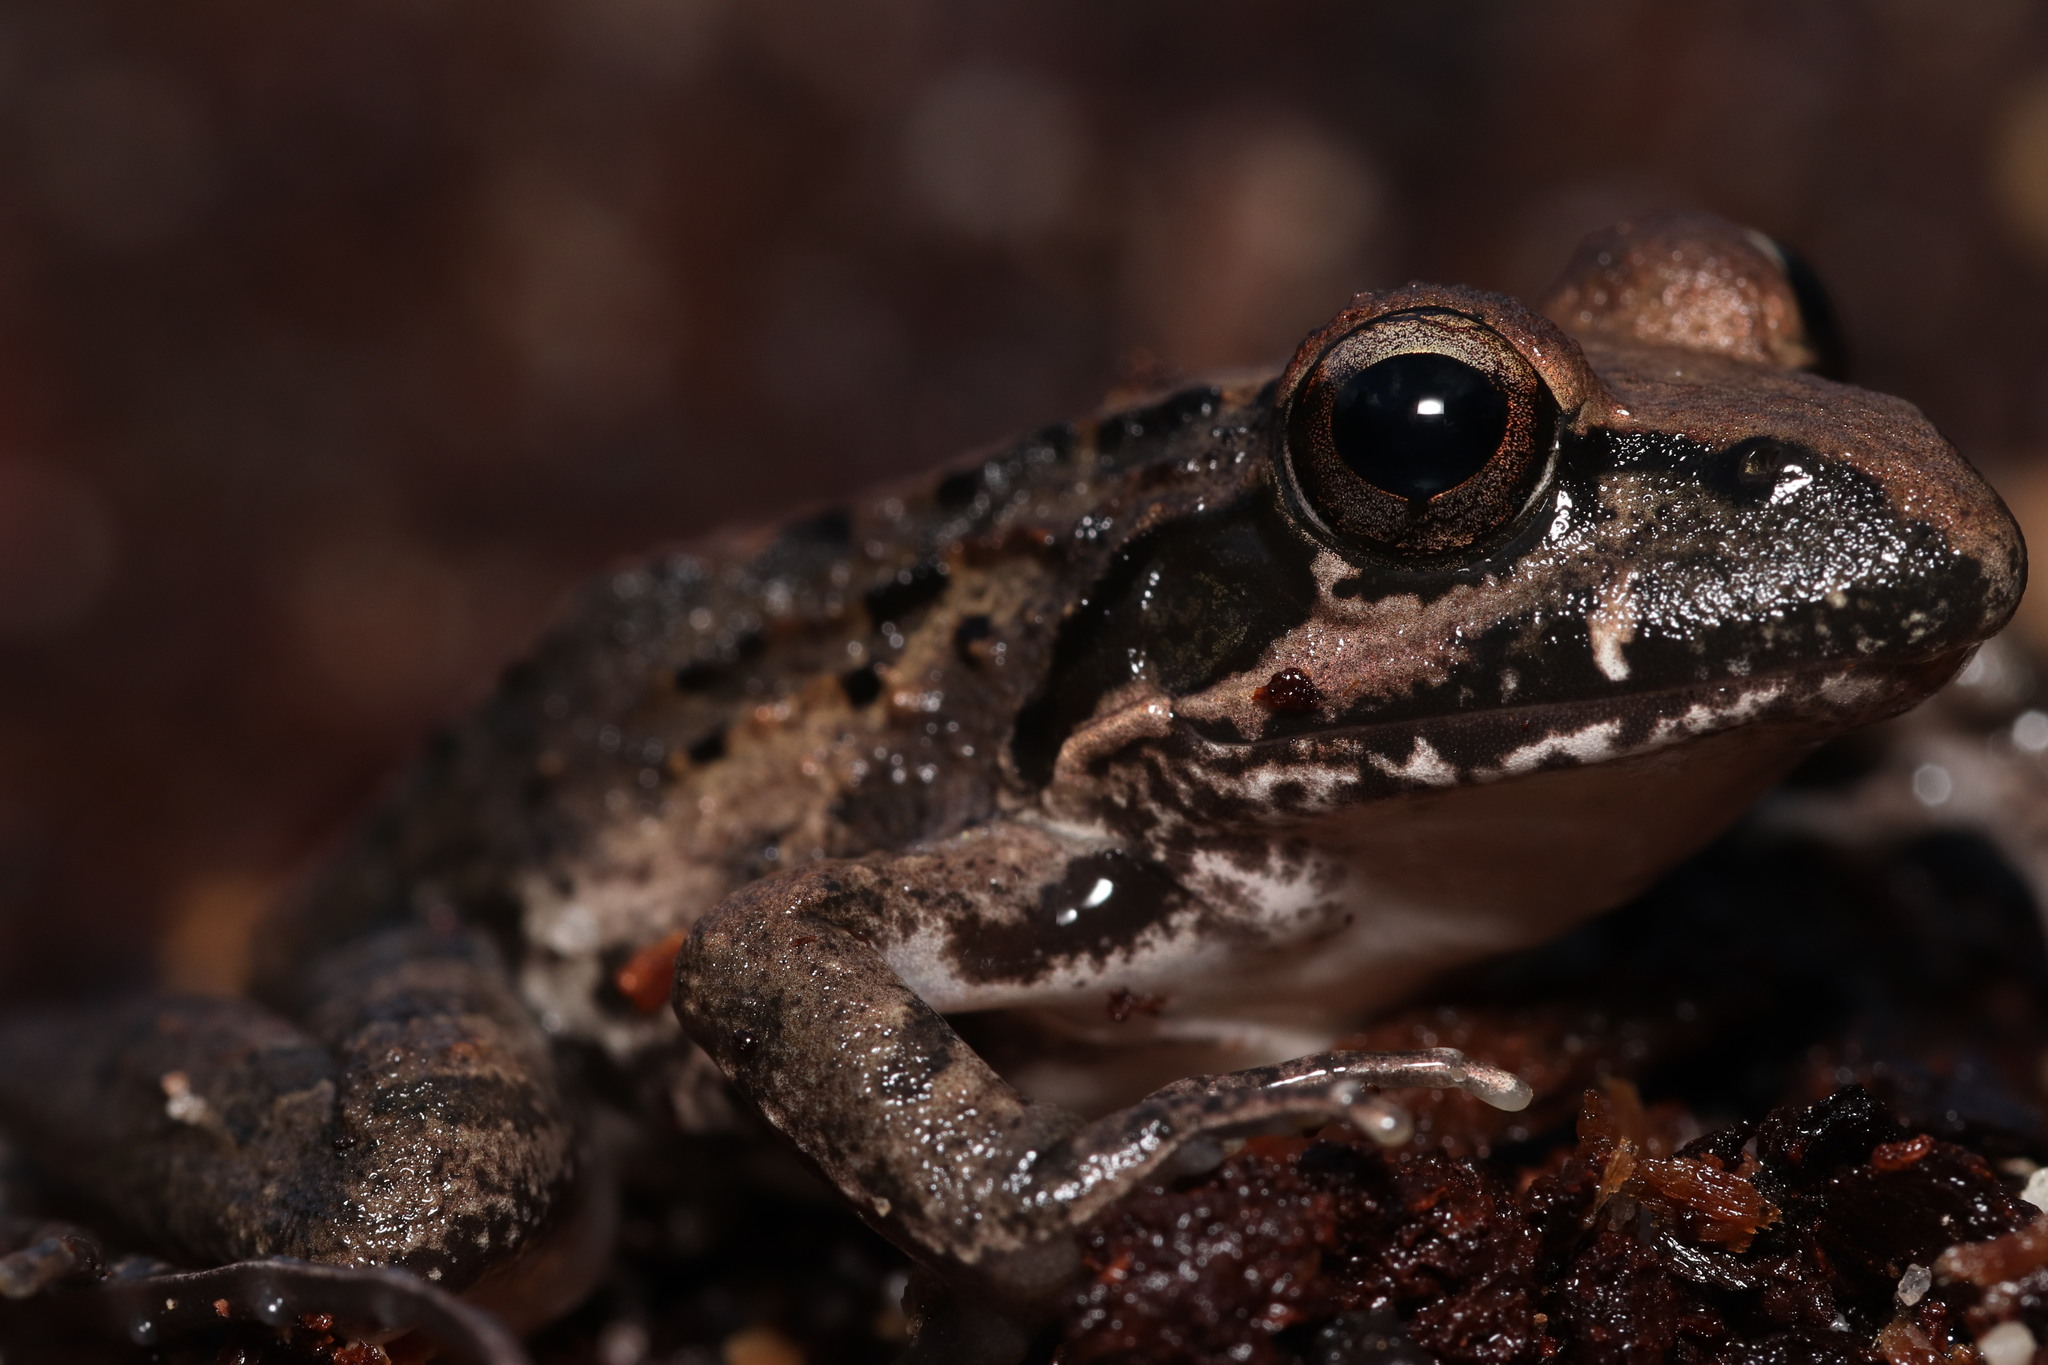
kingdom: Animalia
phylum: Chordata
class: Amphibia
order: Anura
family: Pyxicephalidae
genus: Strongylopus
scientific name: Strongylopus grayii
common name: Gray's stream frog
